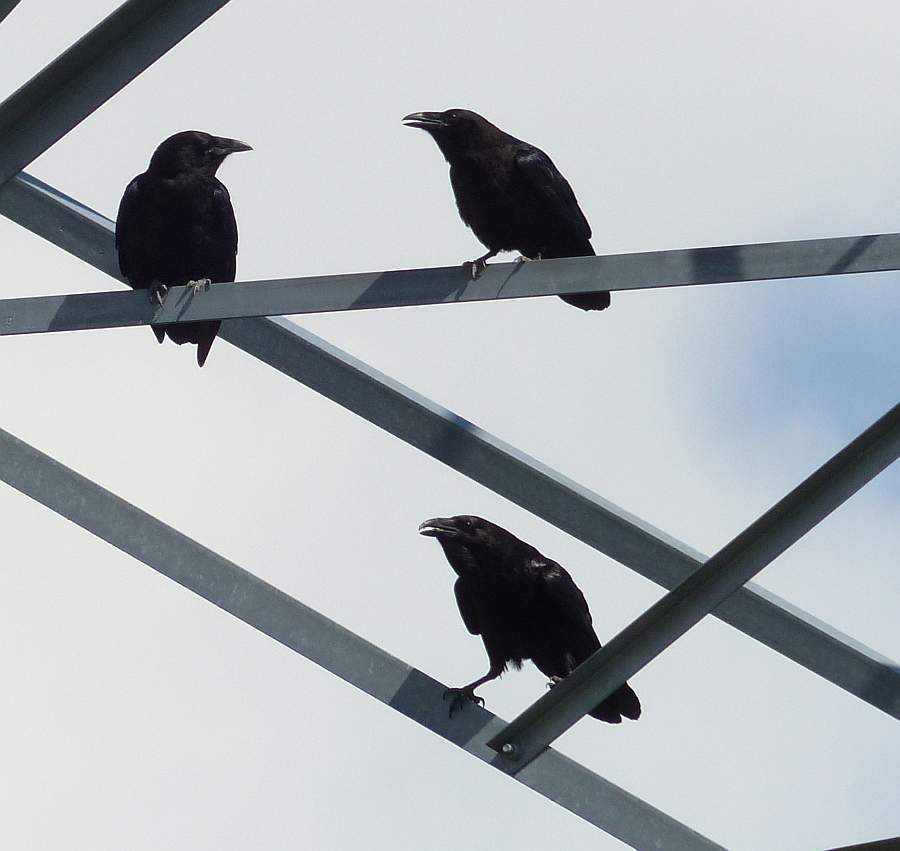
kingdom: Animalia
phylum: Chordata
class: Aves
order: Passeriformes
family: Corvidae
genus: Corvus
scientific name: Corvus corax
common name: Common raven
